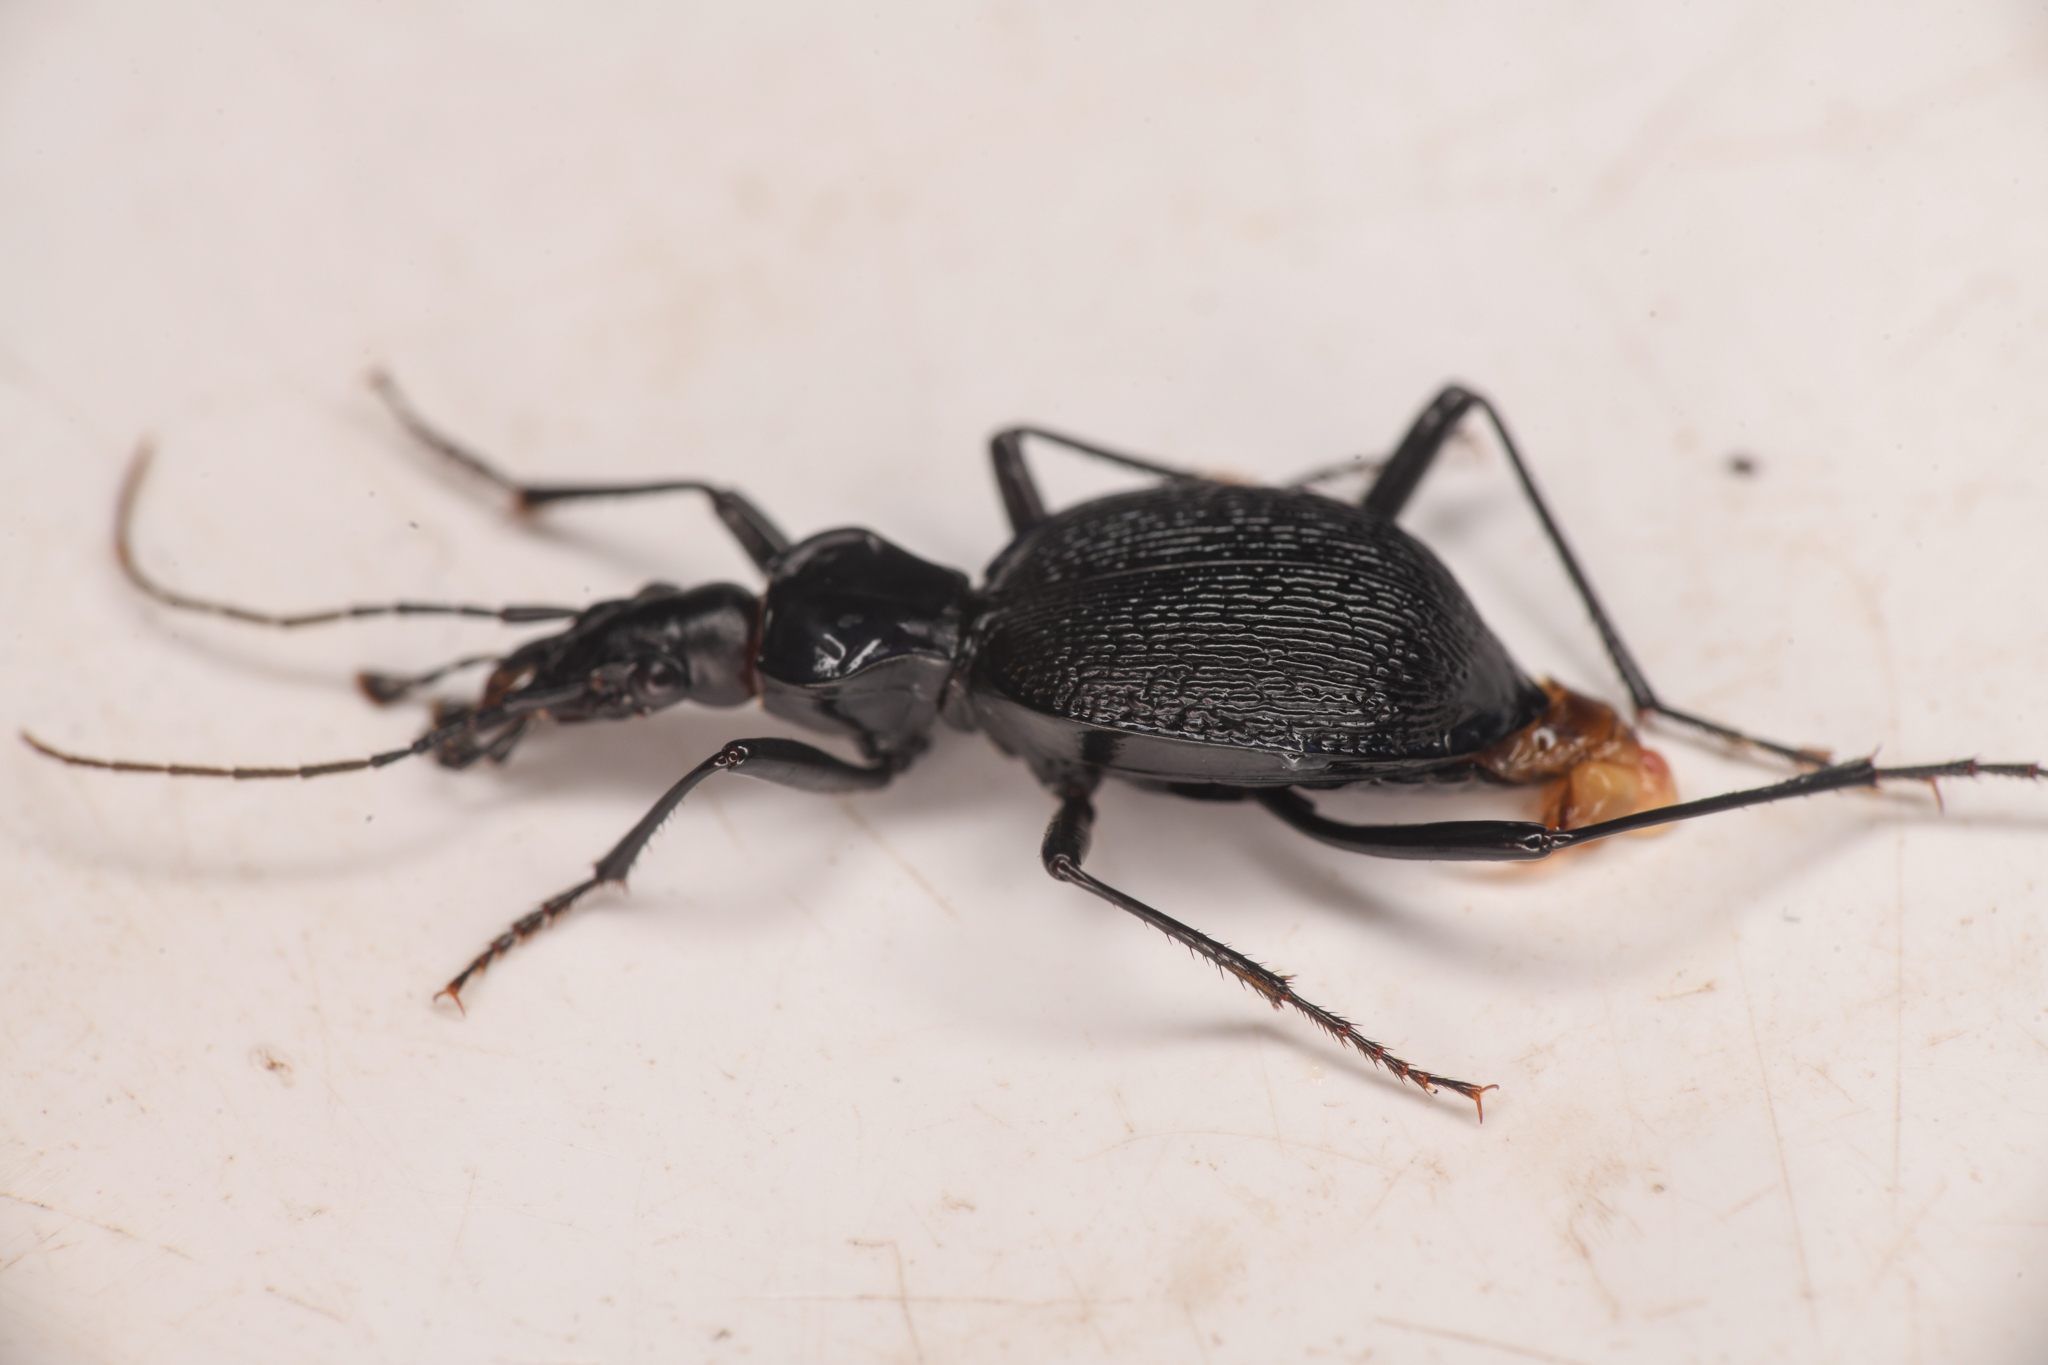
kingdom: Animalia
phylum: Arthropoda
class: Insecta
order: Coleoptera
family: Carabidae
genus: Scaphinotus
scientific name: Scaphinotus marginatus
